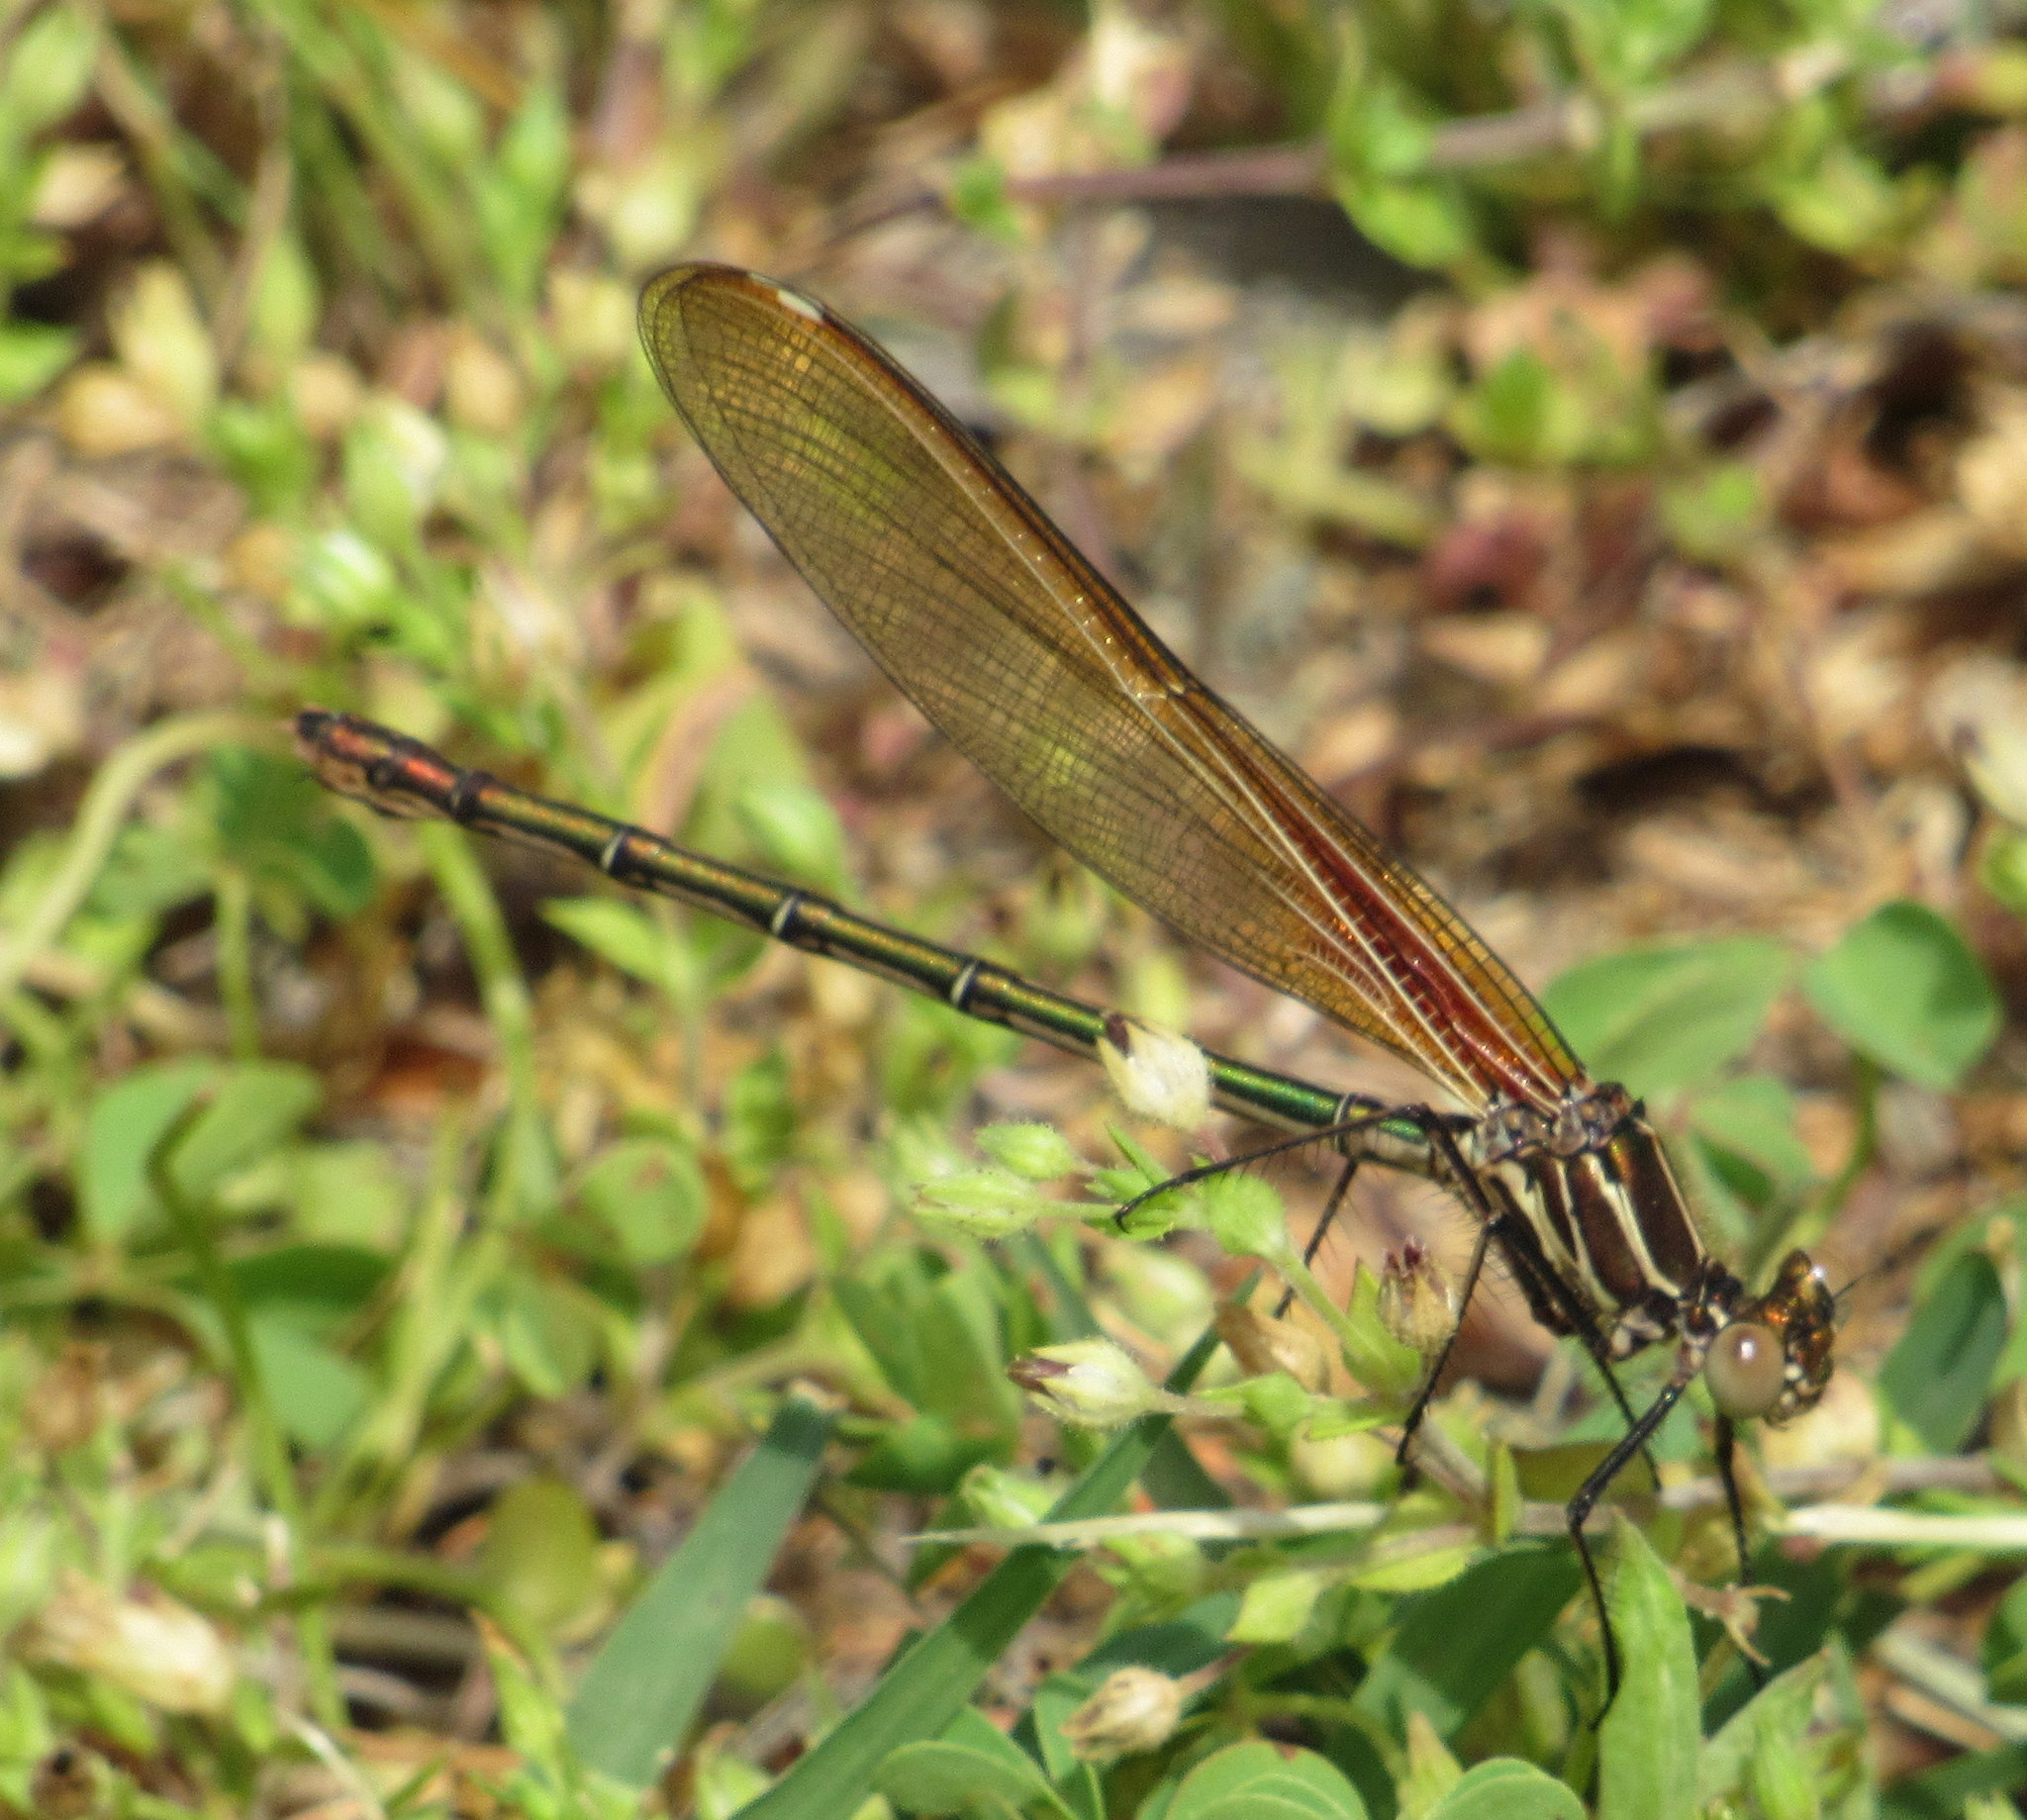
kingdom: Animalia
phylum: Arthropoda
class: Insecta
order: Odonata
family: Calopterygidae
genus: Hetaerina
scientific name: Hetaerina americana
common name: American rubyspot
